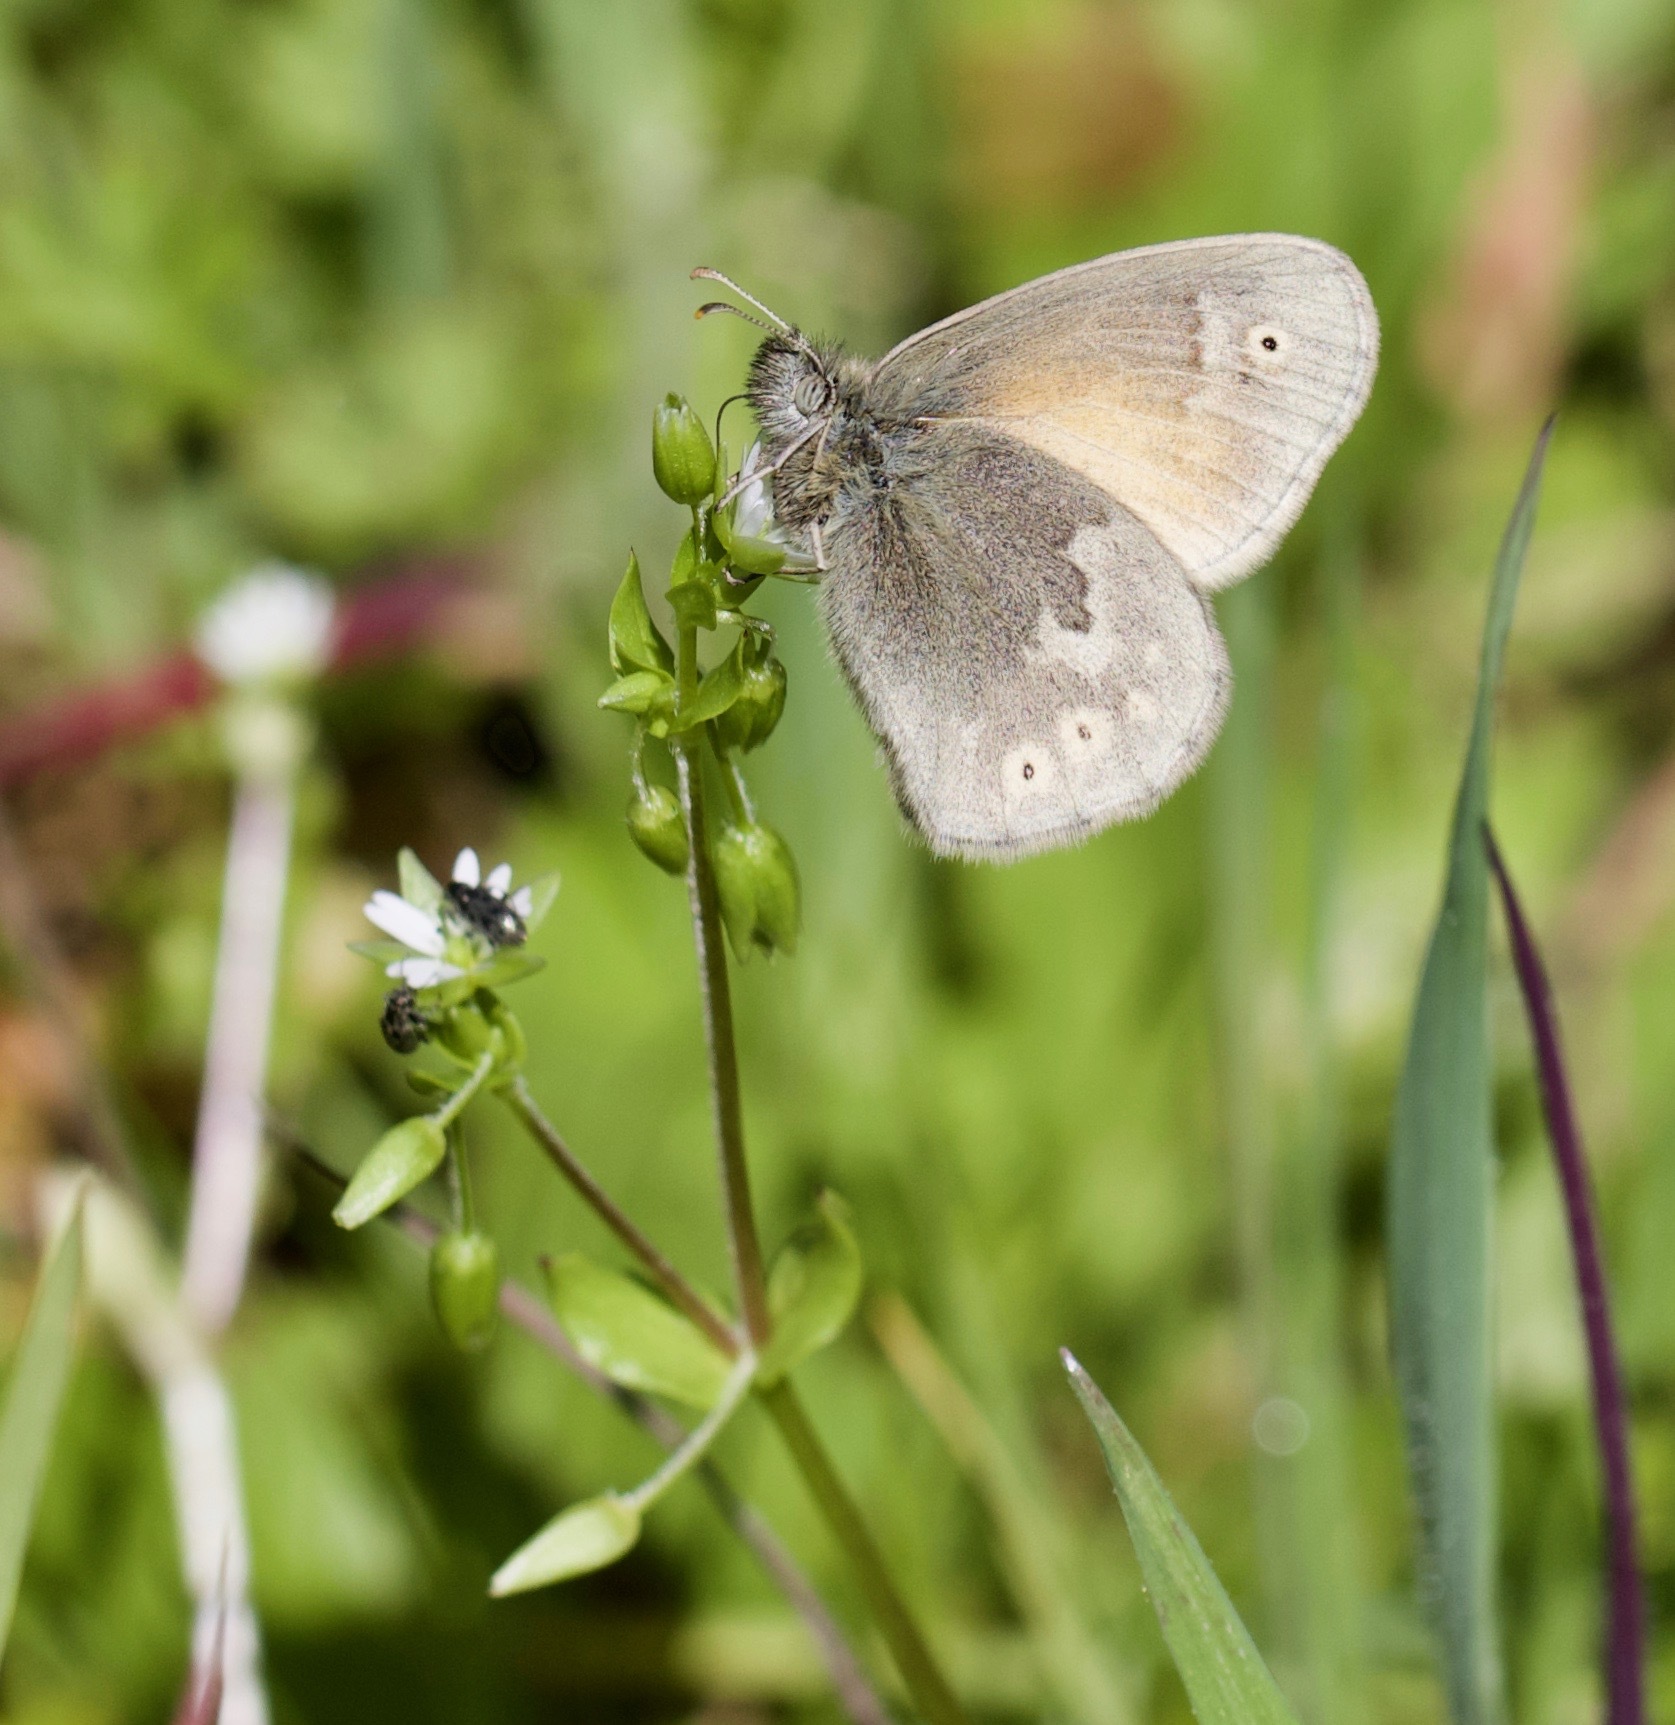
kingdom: Animalia
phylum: Arthropoda
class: Insecta
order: Lepidoptera
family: Nymphalidae
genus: Coenonympha
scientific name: Coenonympha california
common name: Common ringlet
